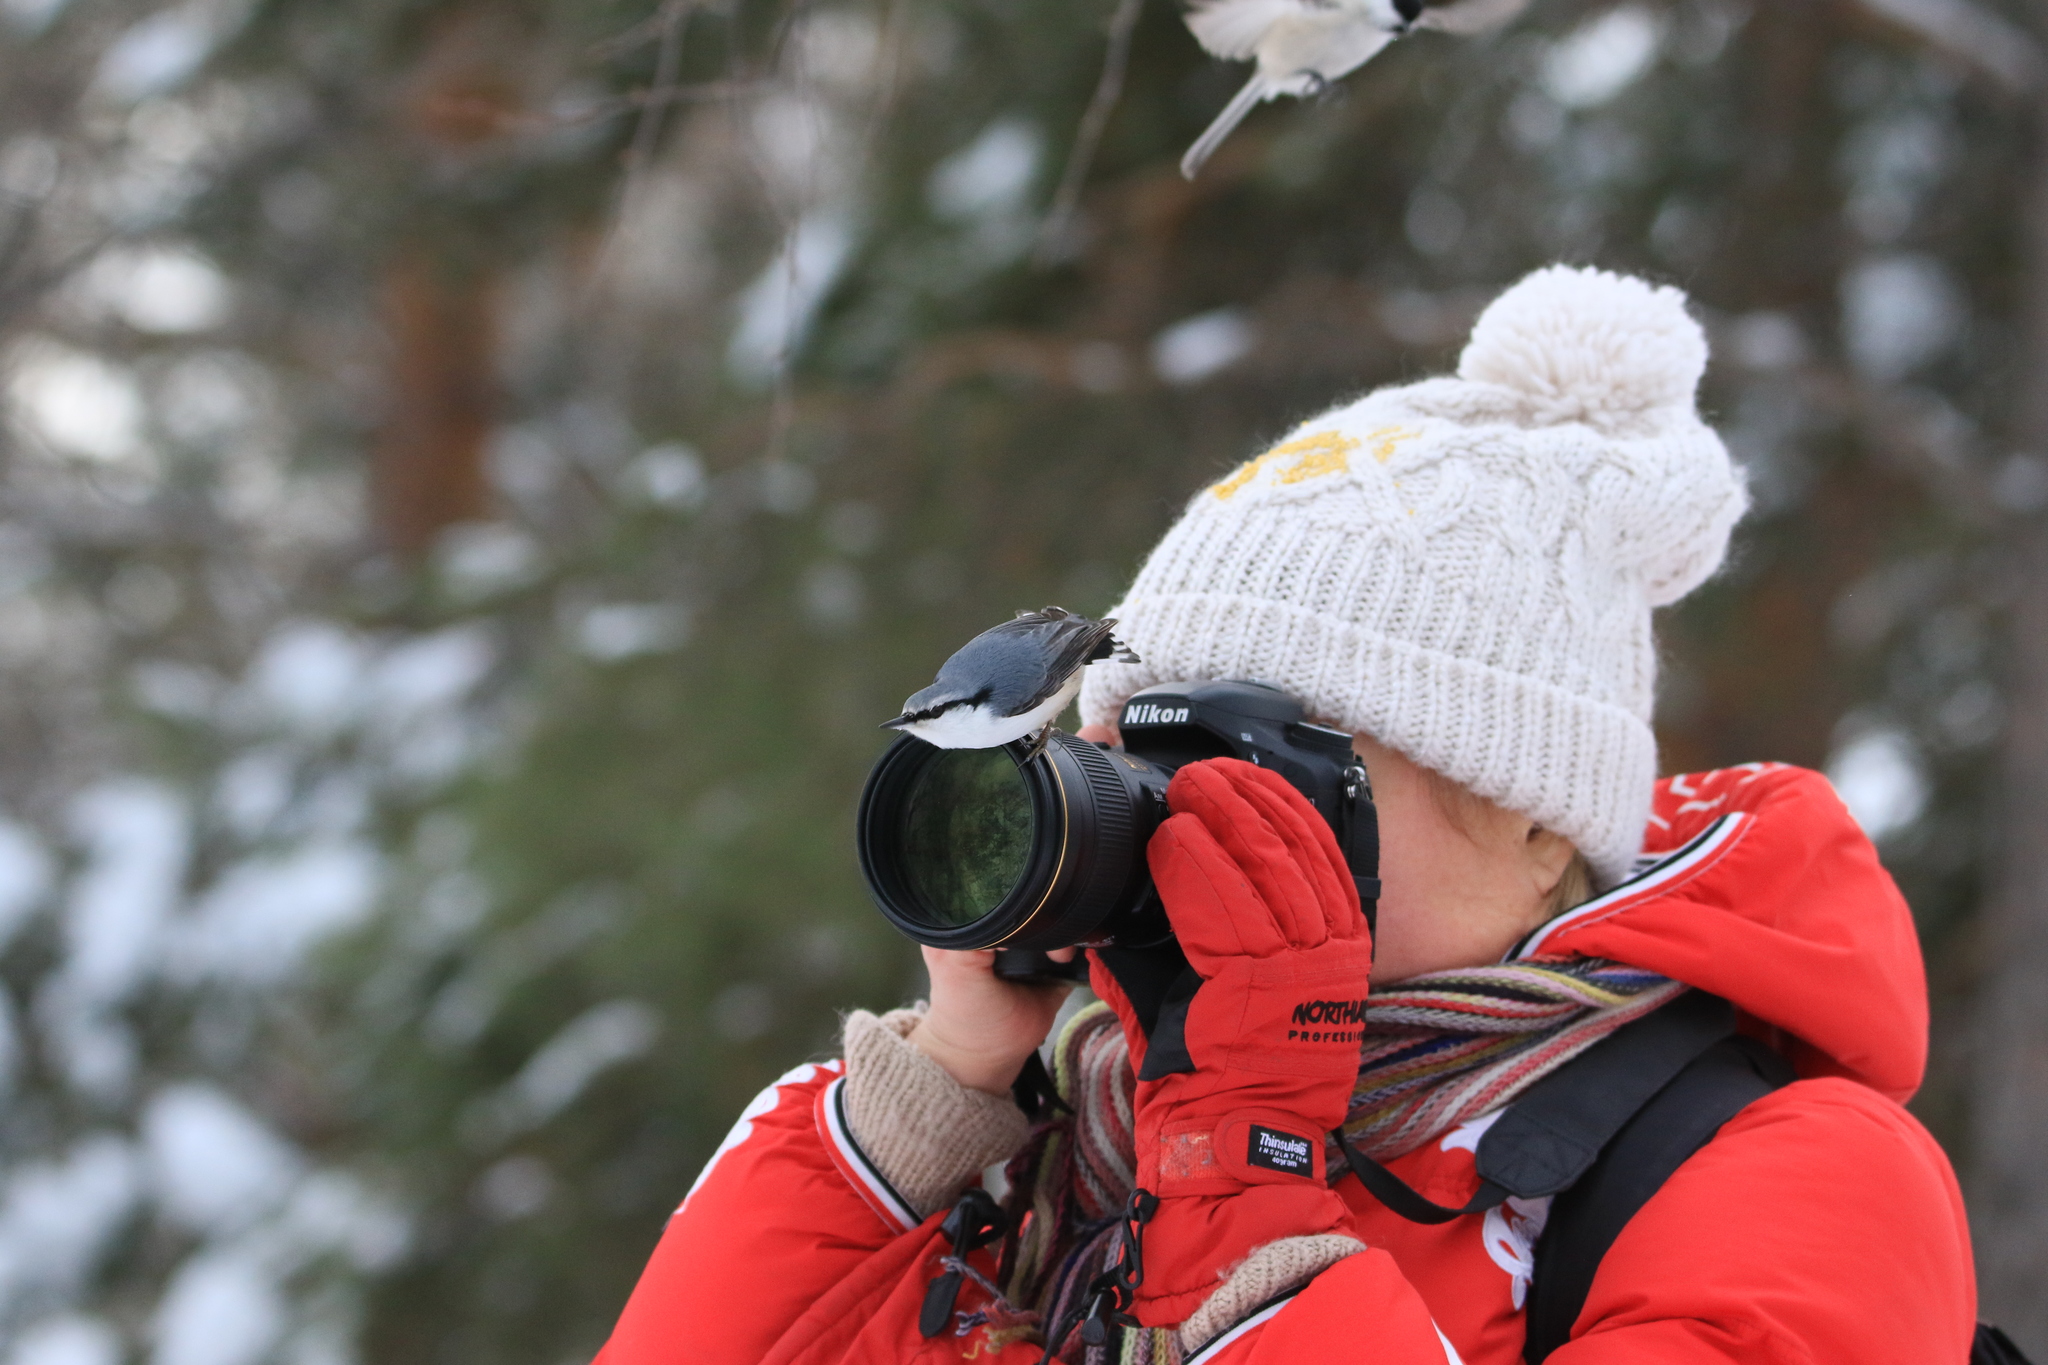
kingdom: Animalia
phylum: Chordata
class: Aves
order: Passeriformes
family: Sittidae
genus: Sitta
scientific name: Sitta europaea
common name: Eurasian nuthatch
